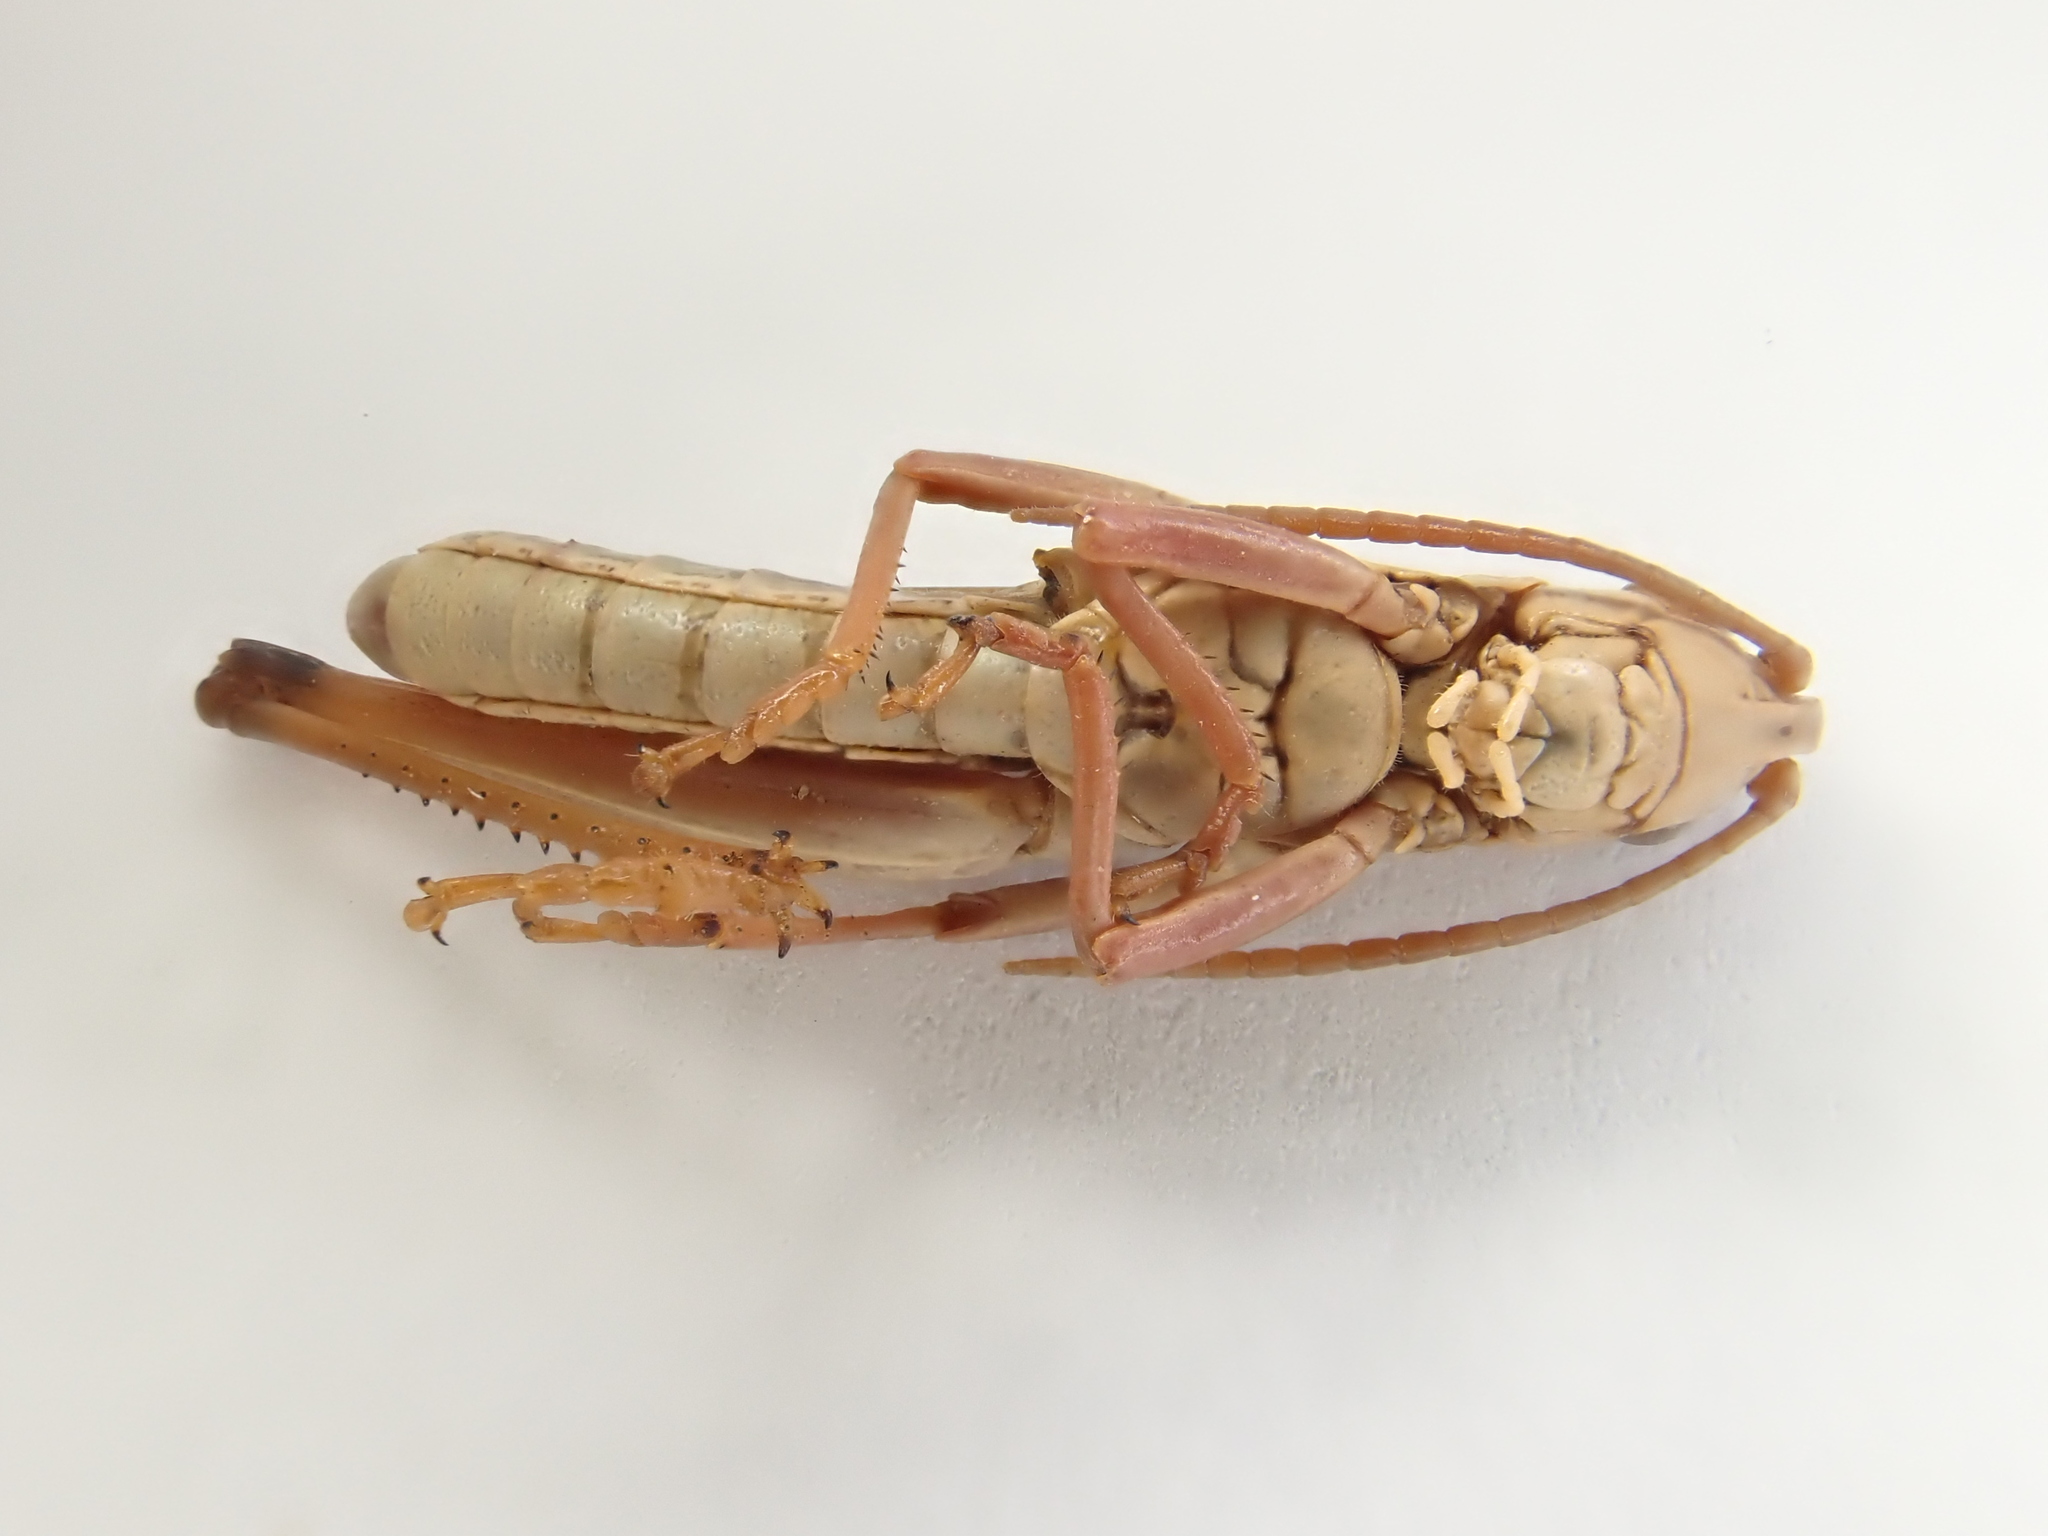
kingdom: Animalia
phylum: Arthropoda
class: Insecta
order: Orthoptera
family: Acrididae
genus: Pseudochorthippus
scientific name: Pseudochorthippus parallelus
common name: Meadow grasshopper
